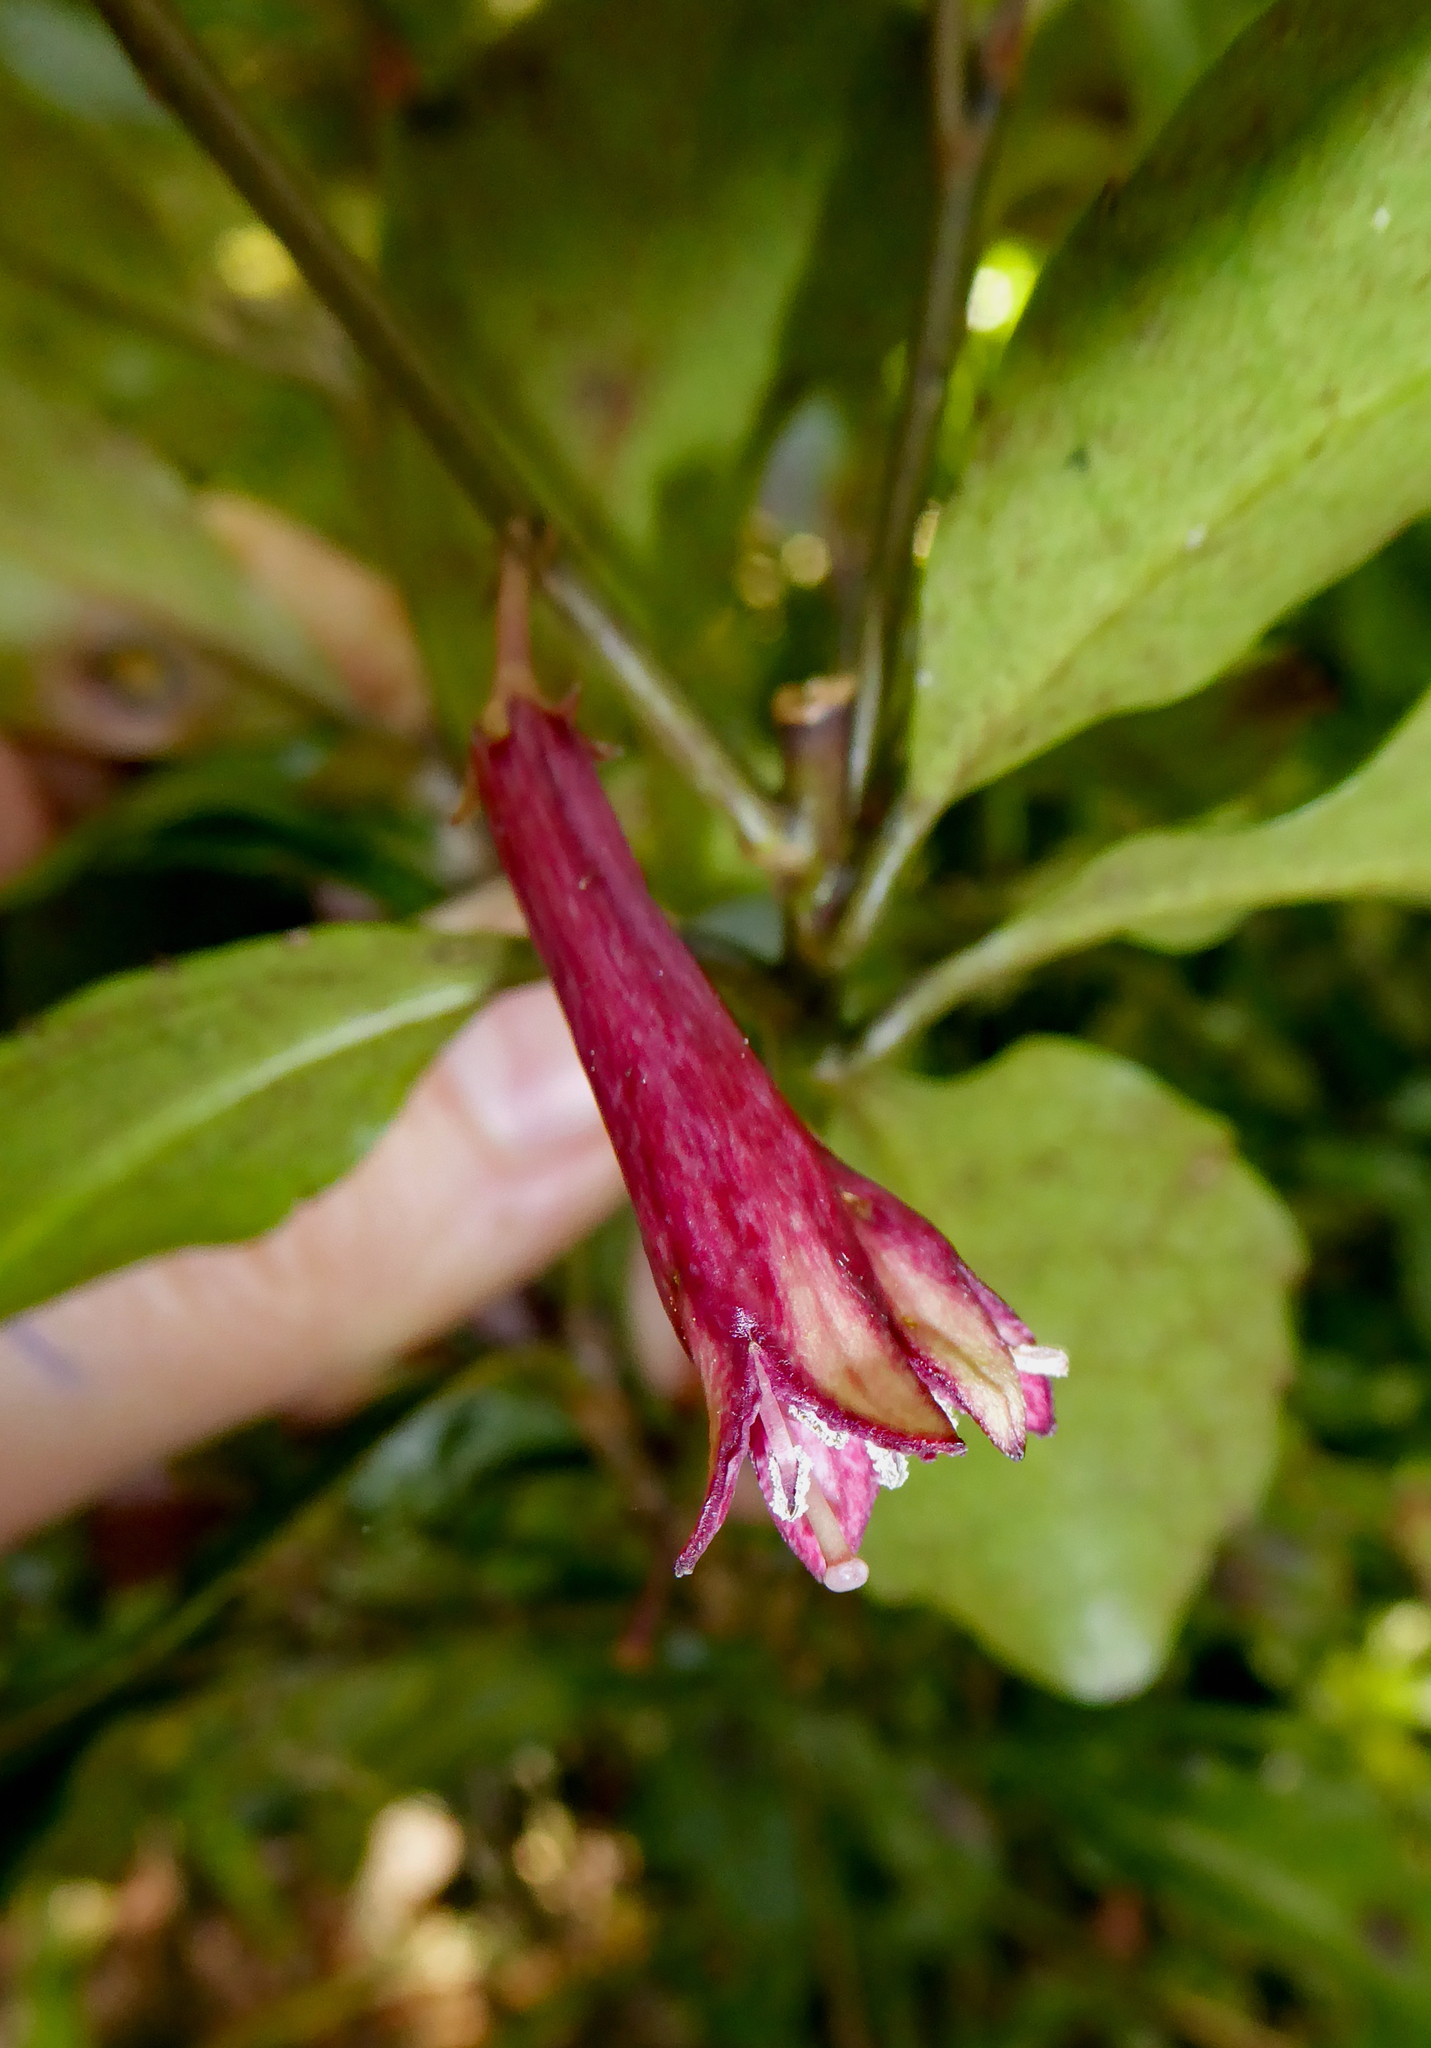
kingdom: Plantae
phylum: Tracheophyta
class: Magnoliopsida
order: Asterales
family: Alseuosmiaceae
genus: Alseuosmia
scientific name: Alseuosmia macrophylla
